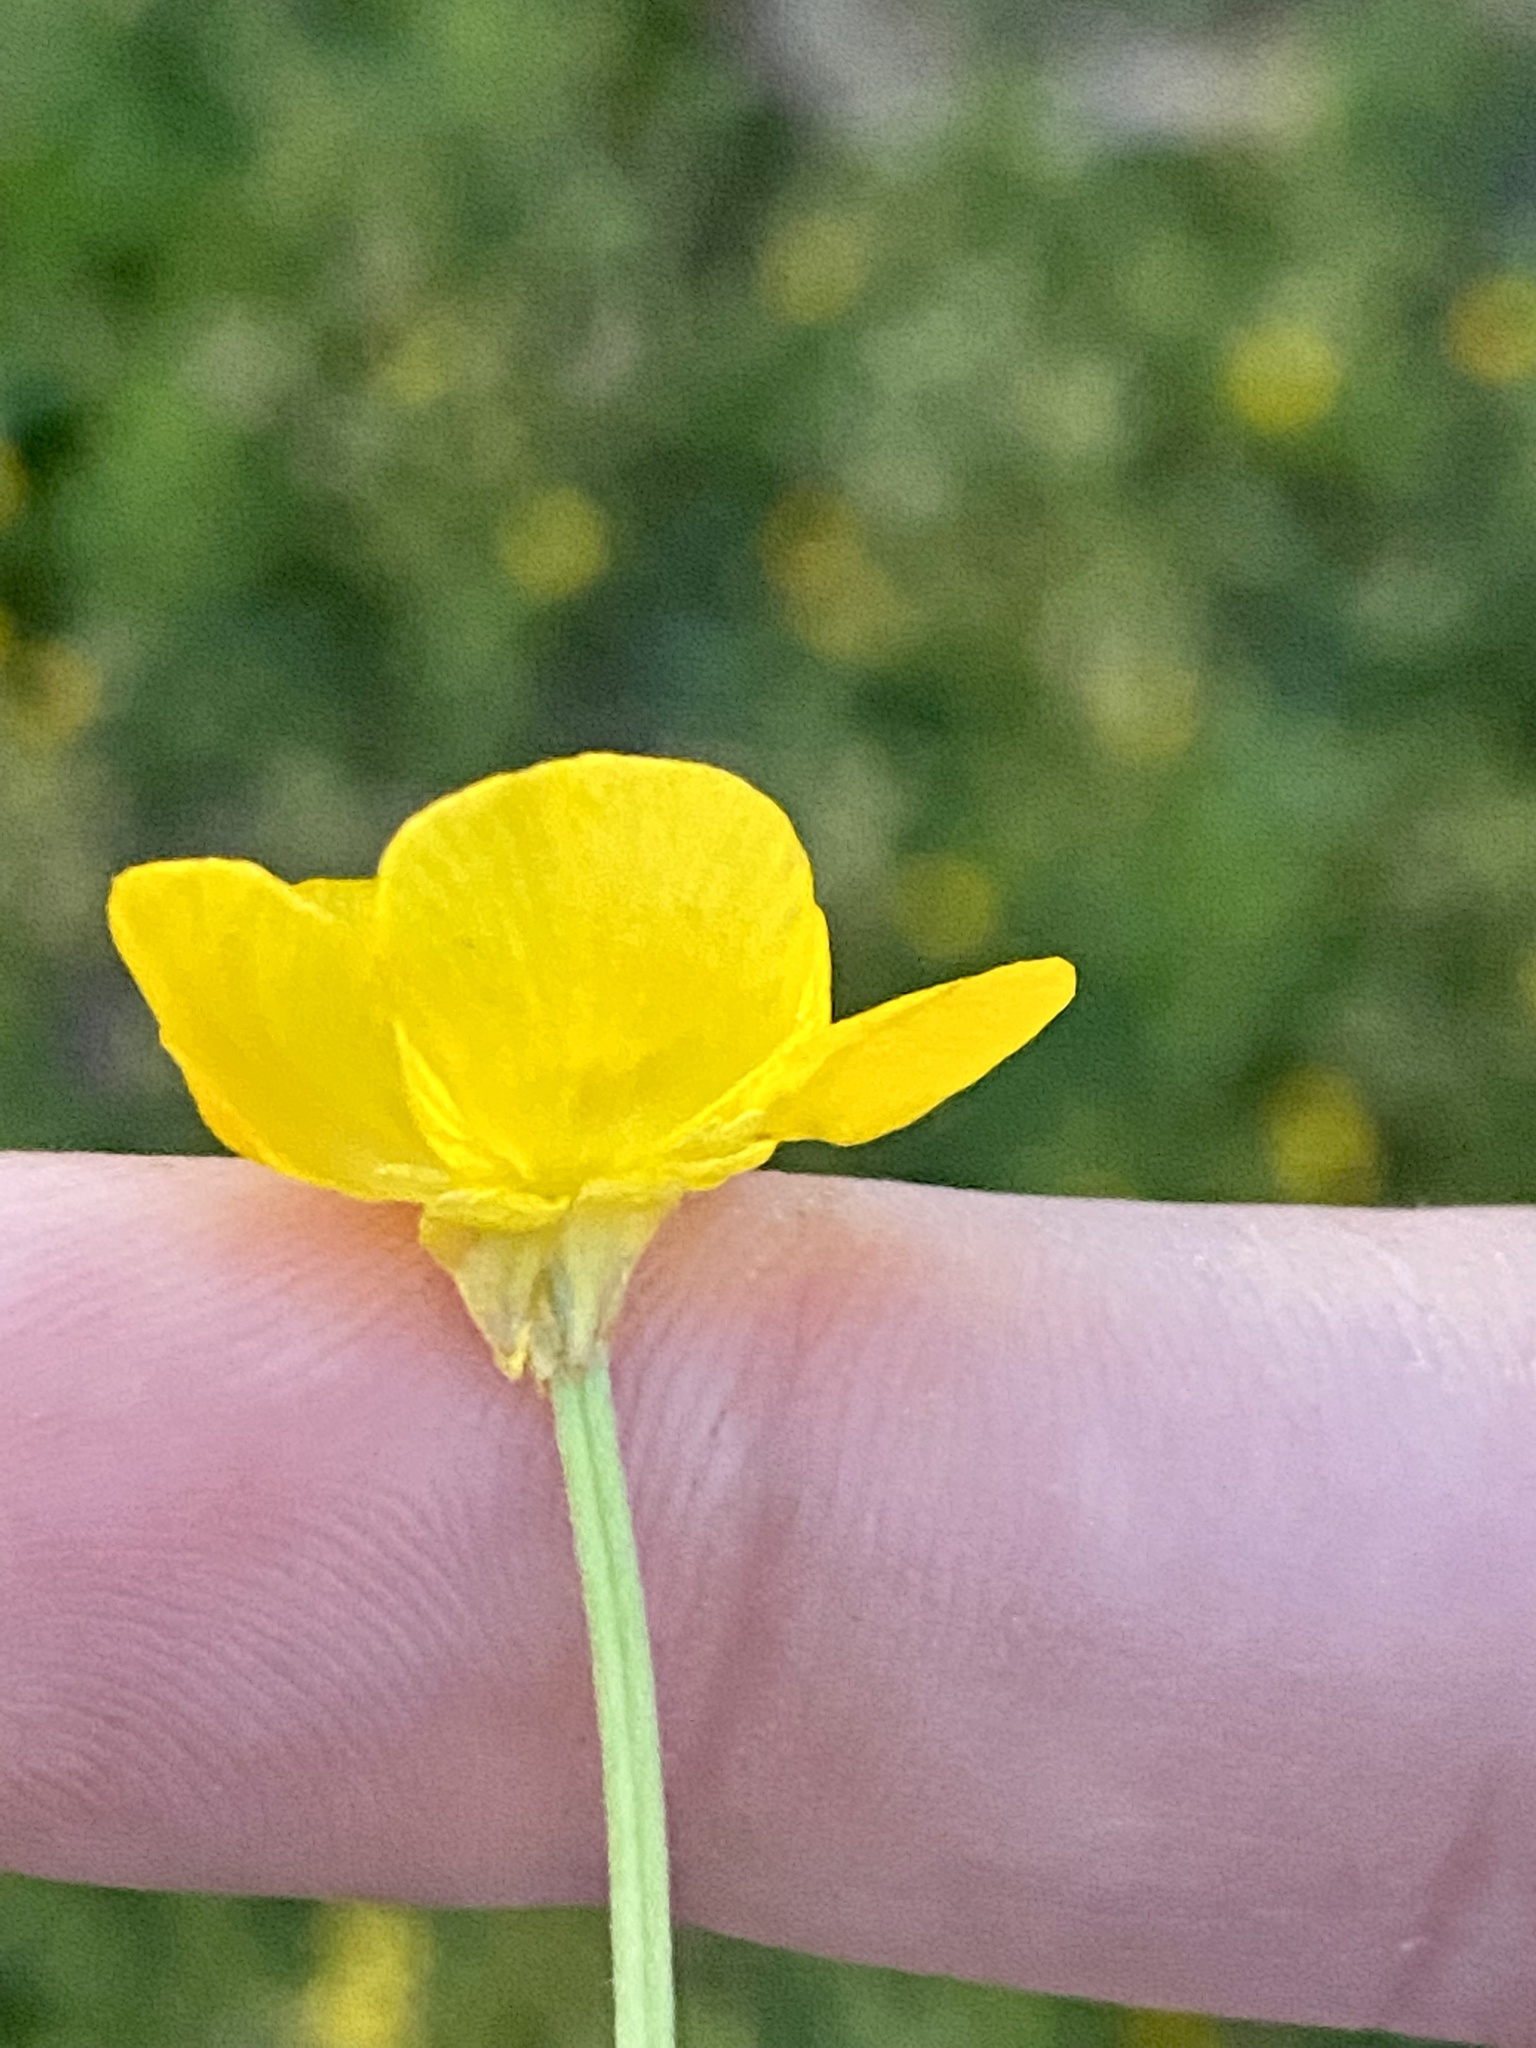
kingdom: Plantae
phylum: Tracheophyta
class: Magnoliopsida
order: Ranunculales
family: Ranunculaceae
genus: Ranunculus
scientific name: Ranunculus bulbosus
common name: Bulbous buttercup
